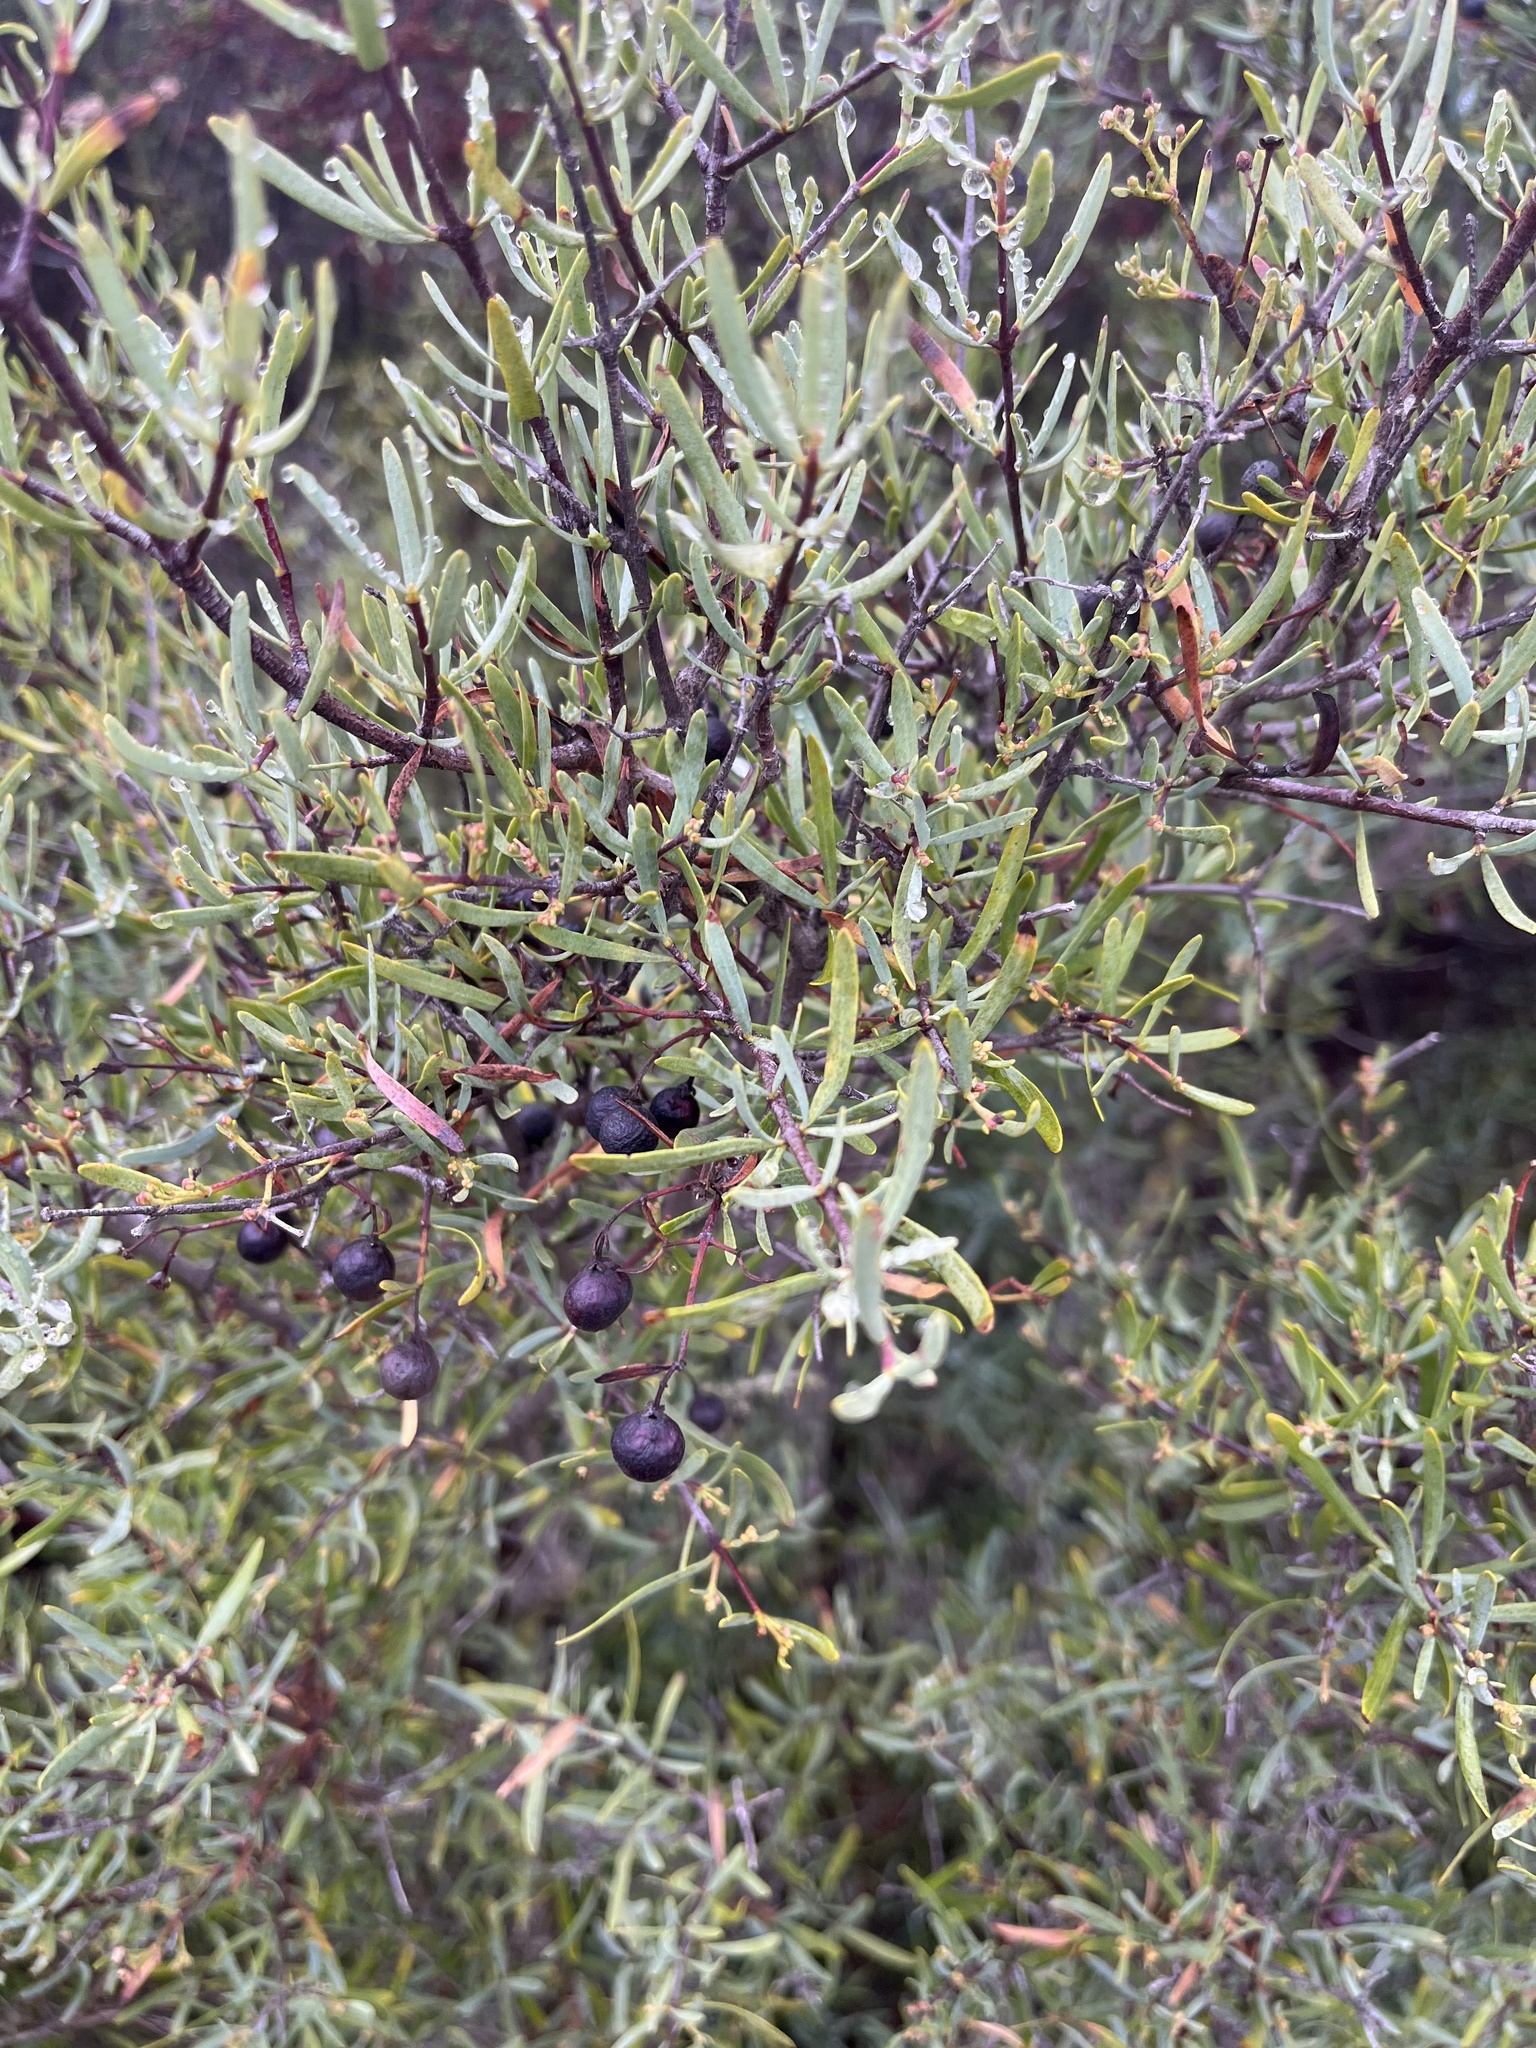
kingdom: Plantae
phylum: Tracheophyta
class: Magnoliopsida
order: Sapindales
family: Rutaceae
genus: Cneoridium
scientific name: Cneoridium dumosum
